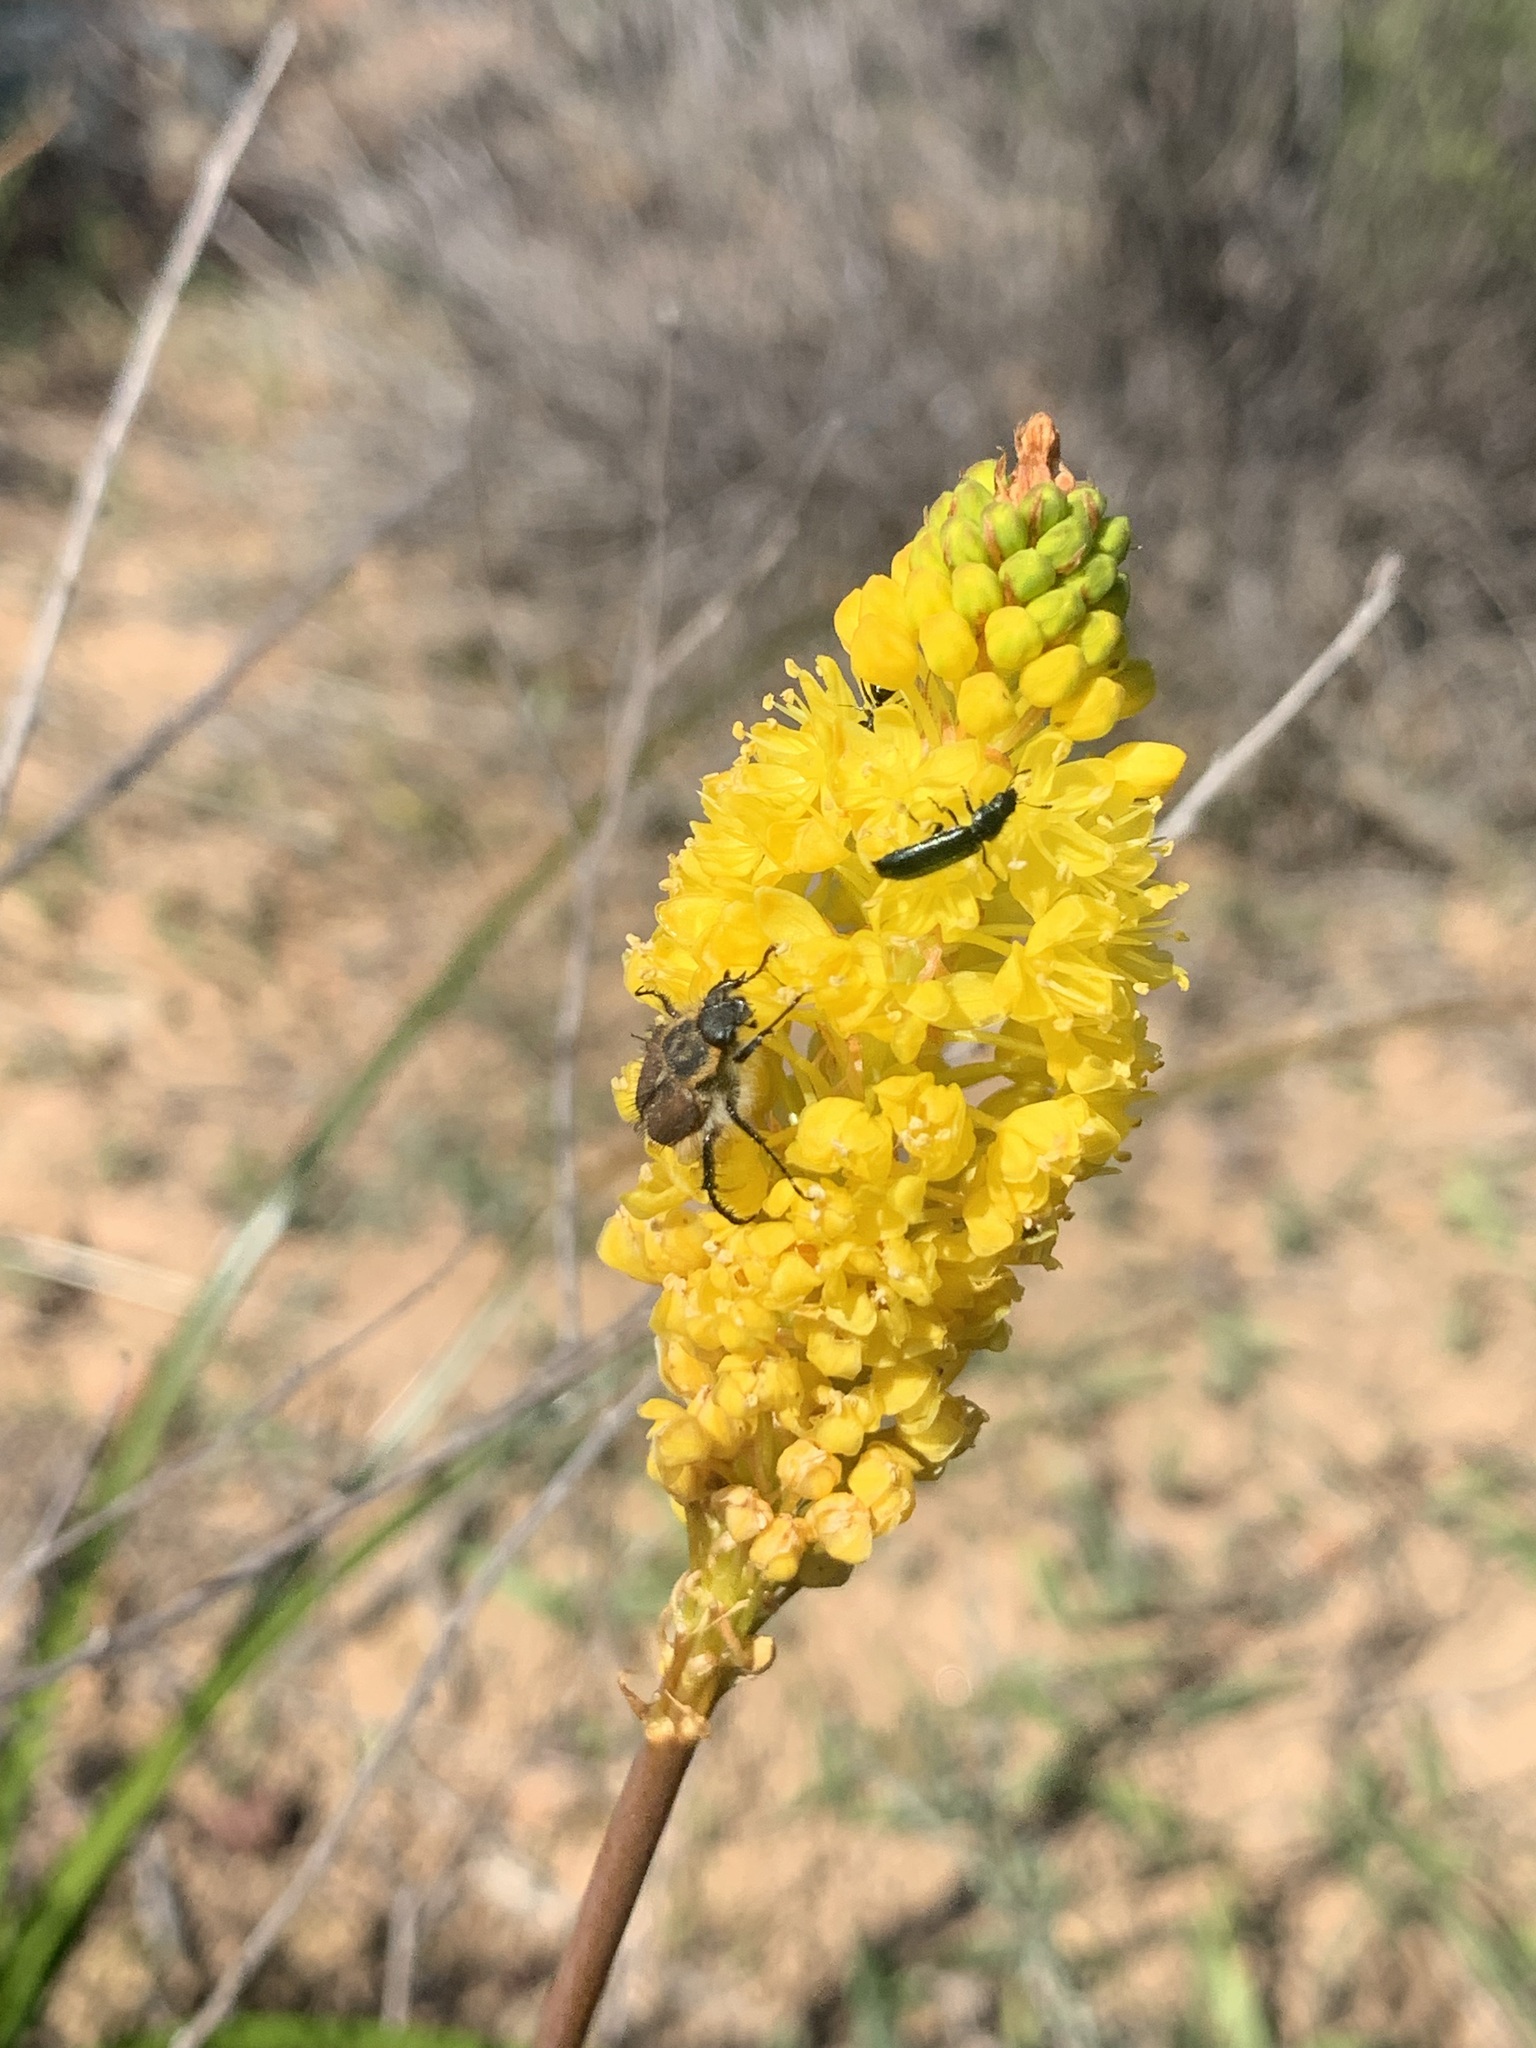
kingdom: Plantae
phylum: Tracheophyta
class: Liliopsida
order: Asparagales
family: Asphodelaceae
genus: Bulbinella
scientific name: Bulbinella nutans
